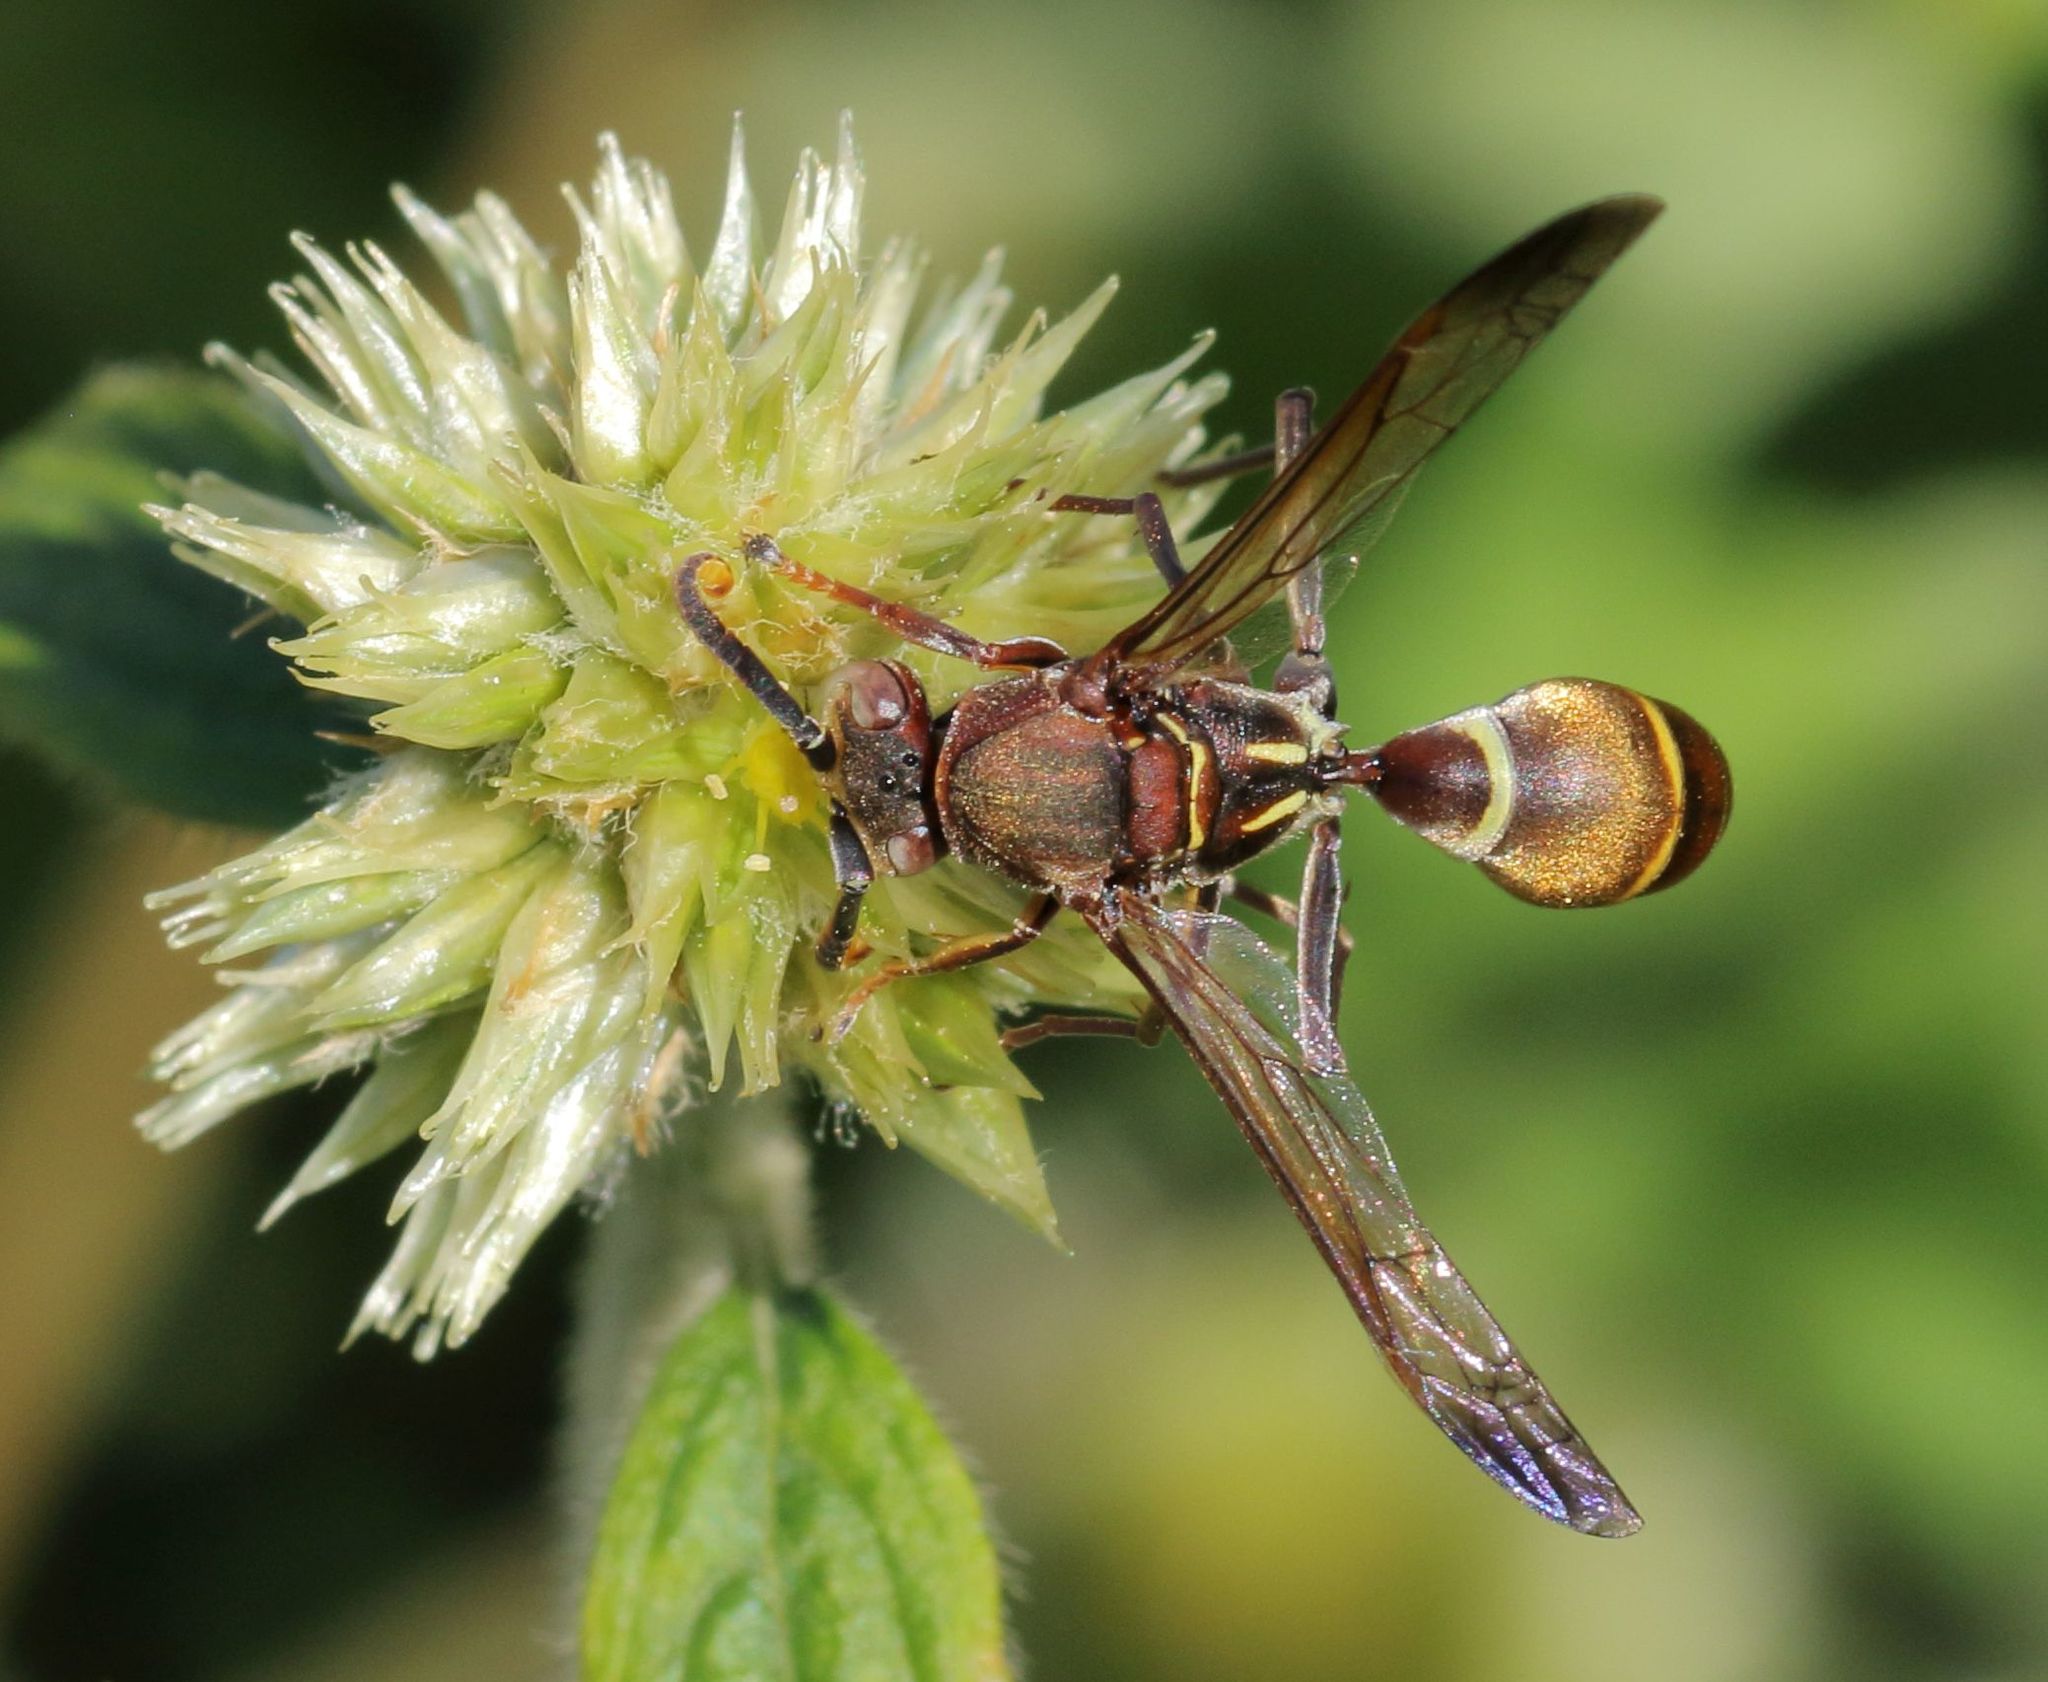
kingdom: Animalia
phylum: Arthropoda
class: Insecta
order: Hymenoptera
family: Eumenidae
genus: Polistes
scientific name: Polistes marginalis
